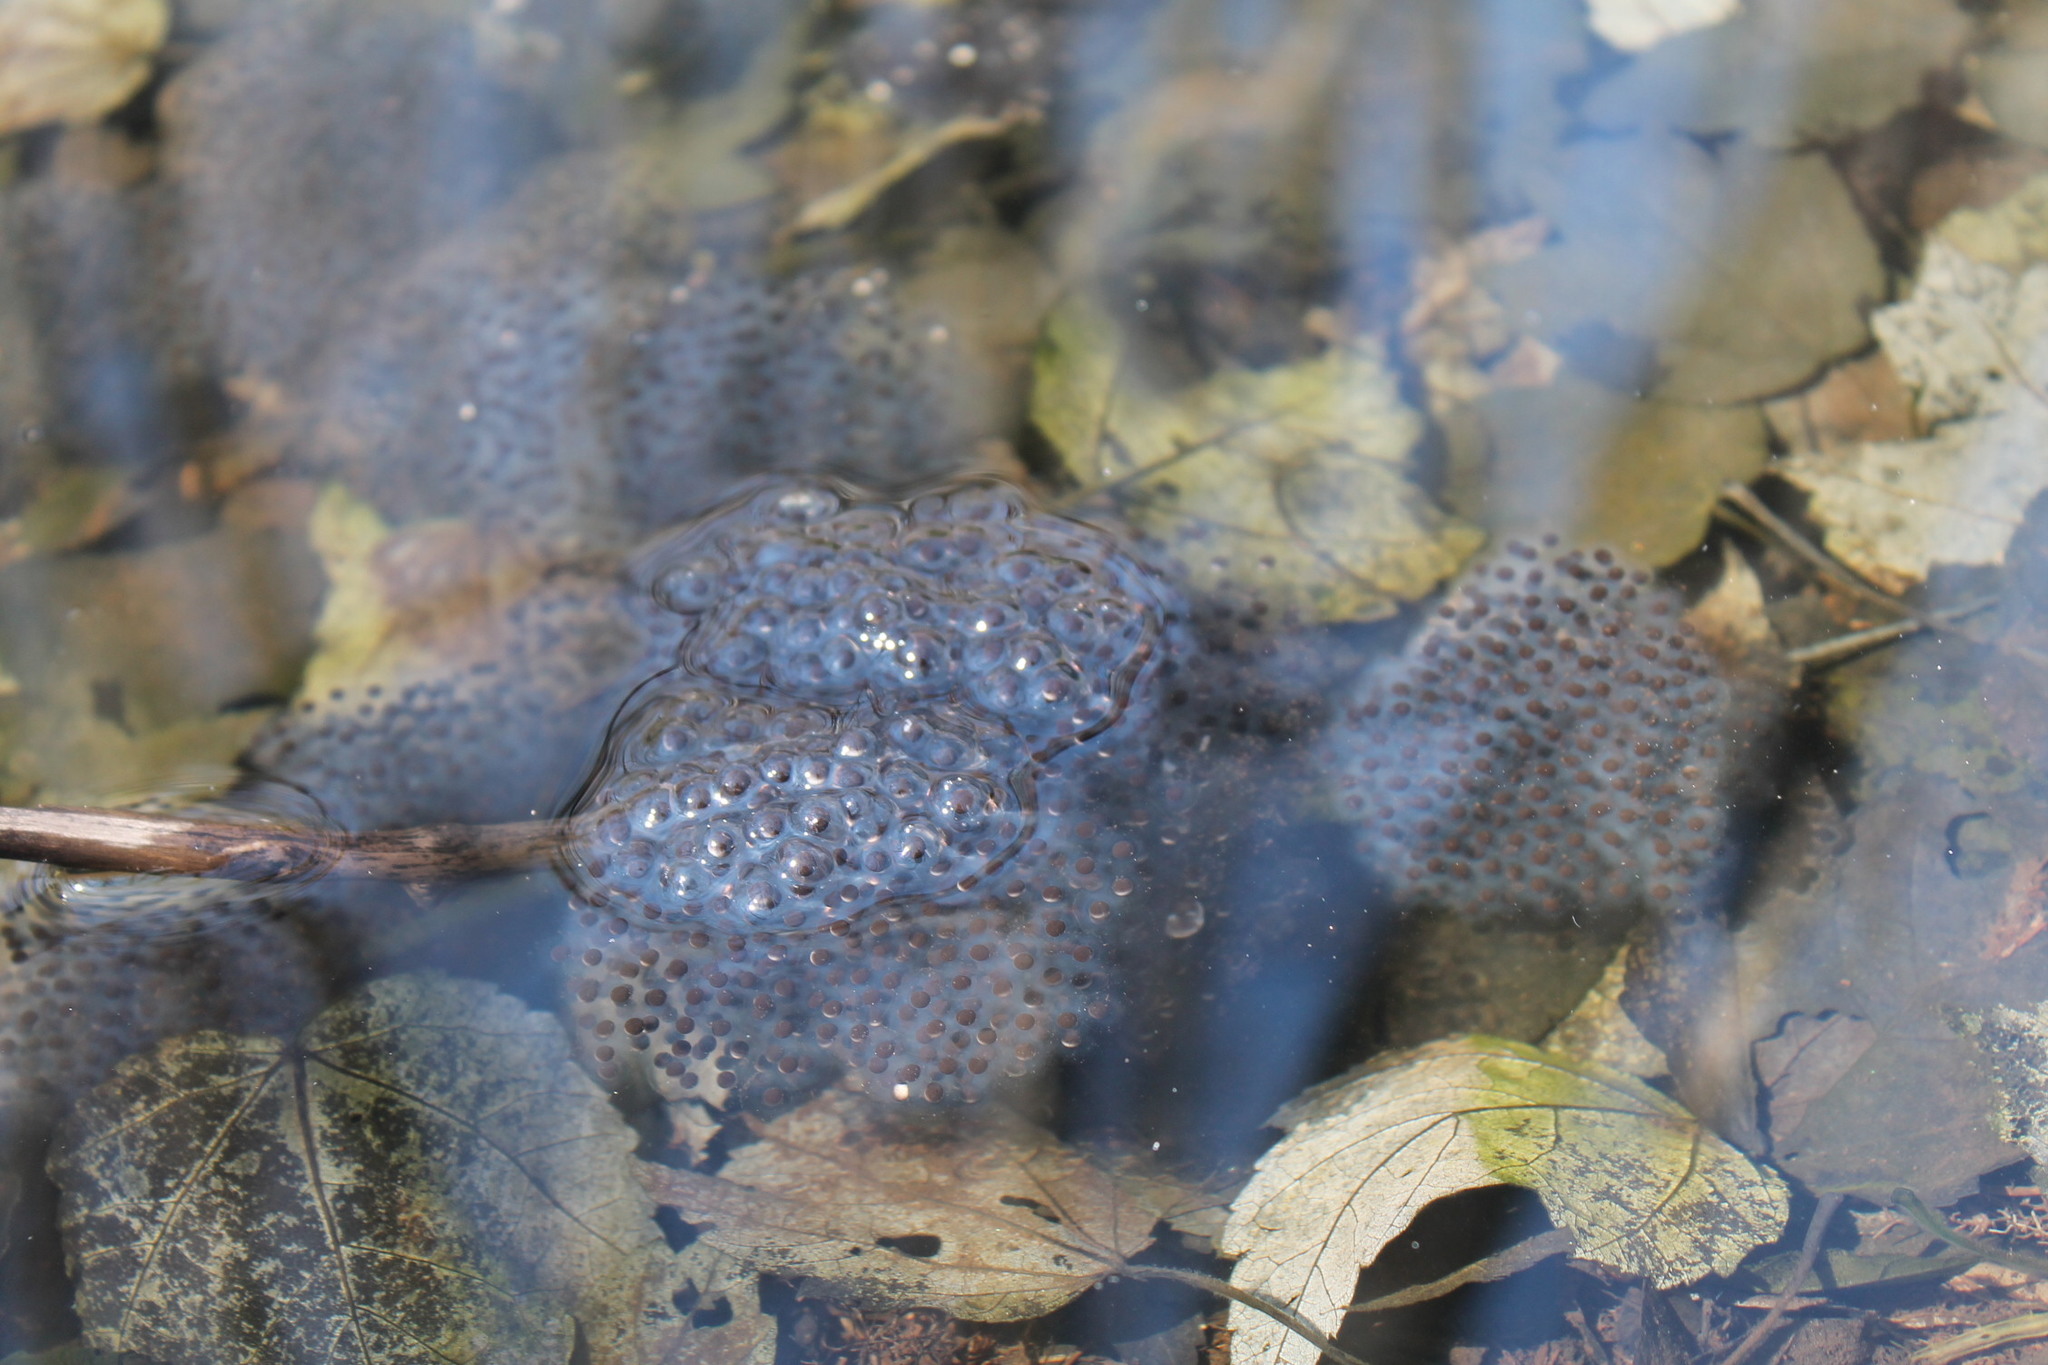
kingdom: Animalia
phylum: Chordata
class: Amphibia
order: Anura
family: Ranidae
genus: Lithobates
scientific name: Lithobates sylvaticus
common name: Wood frog
